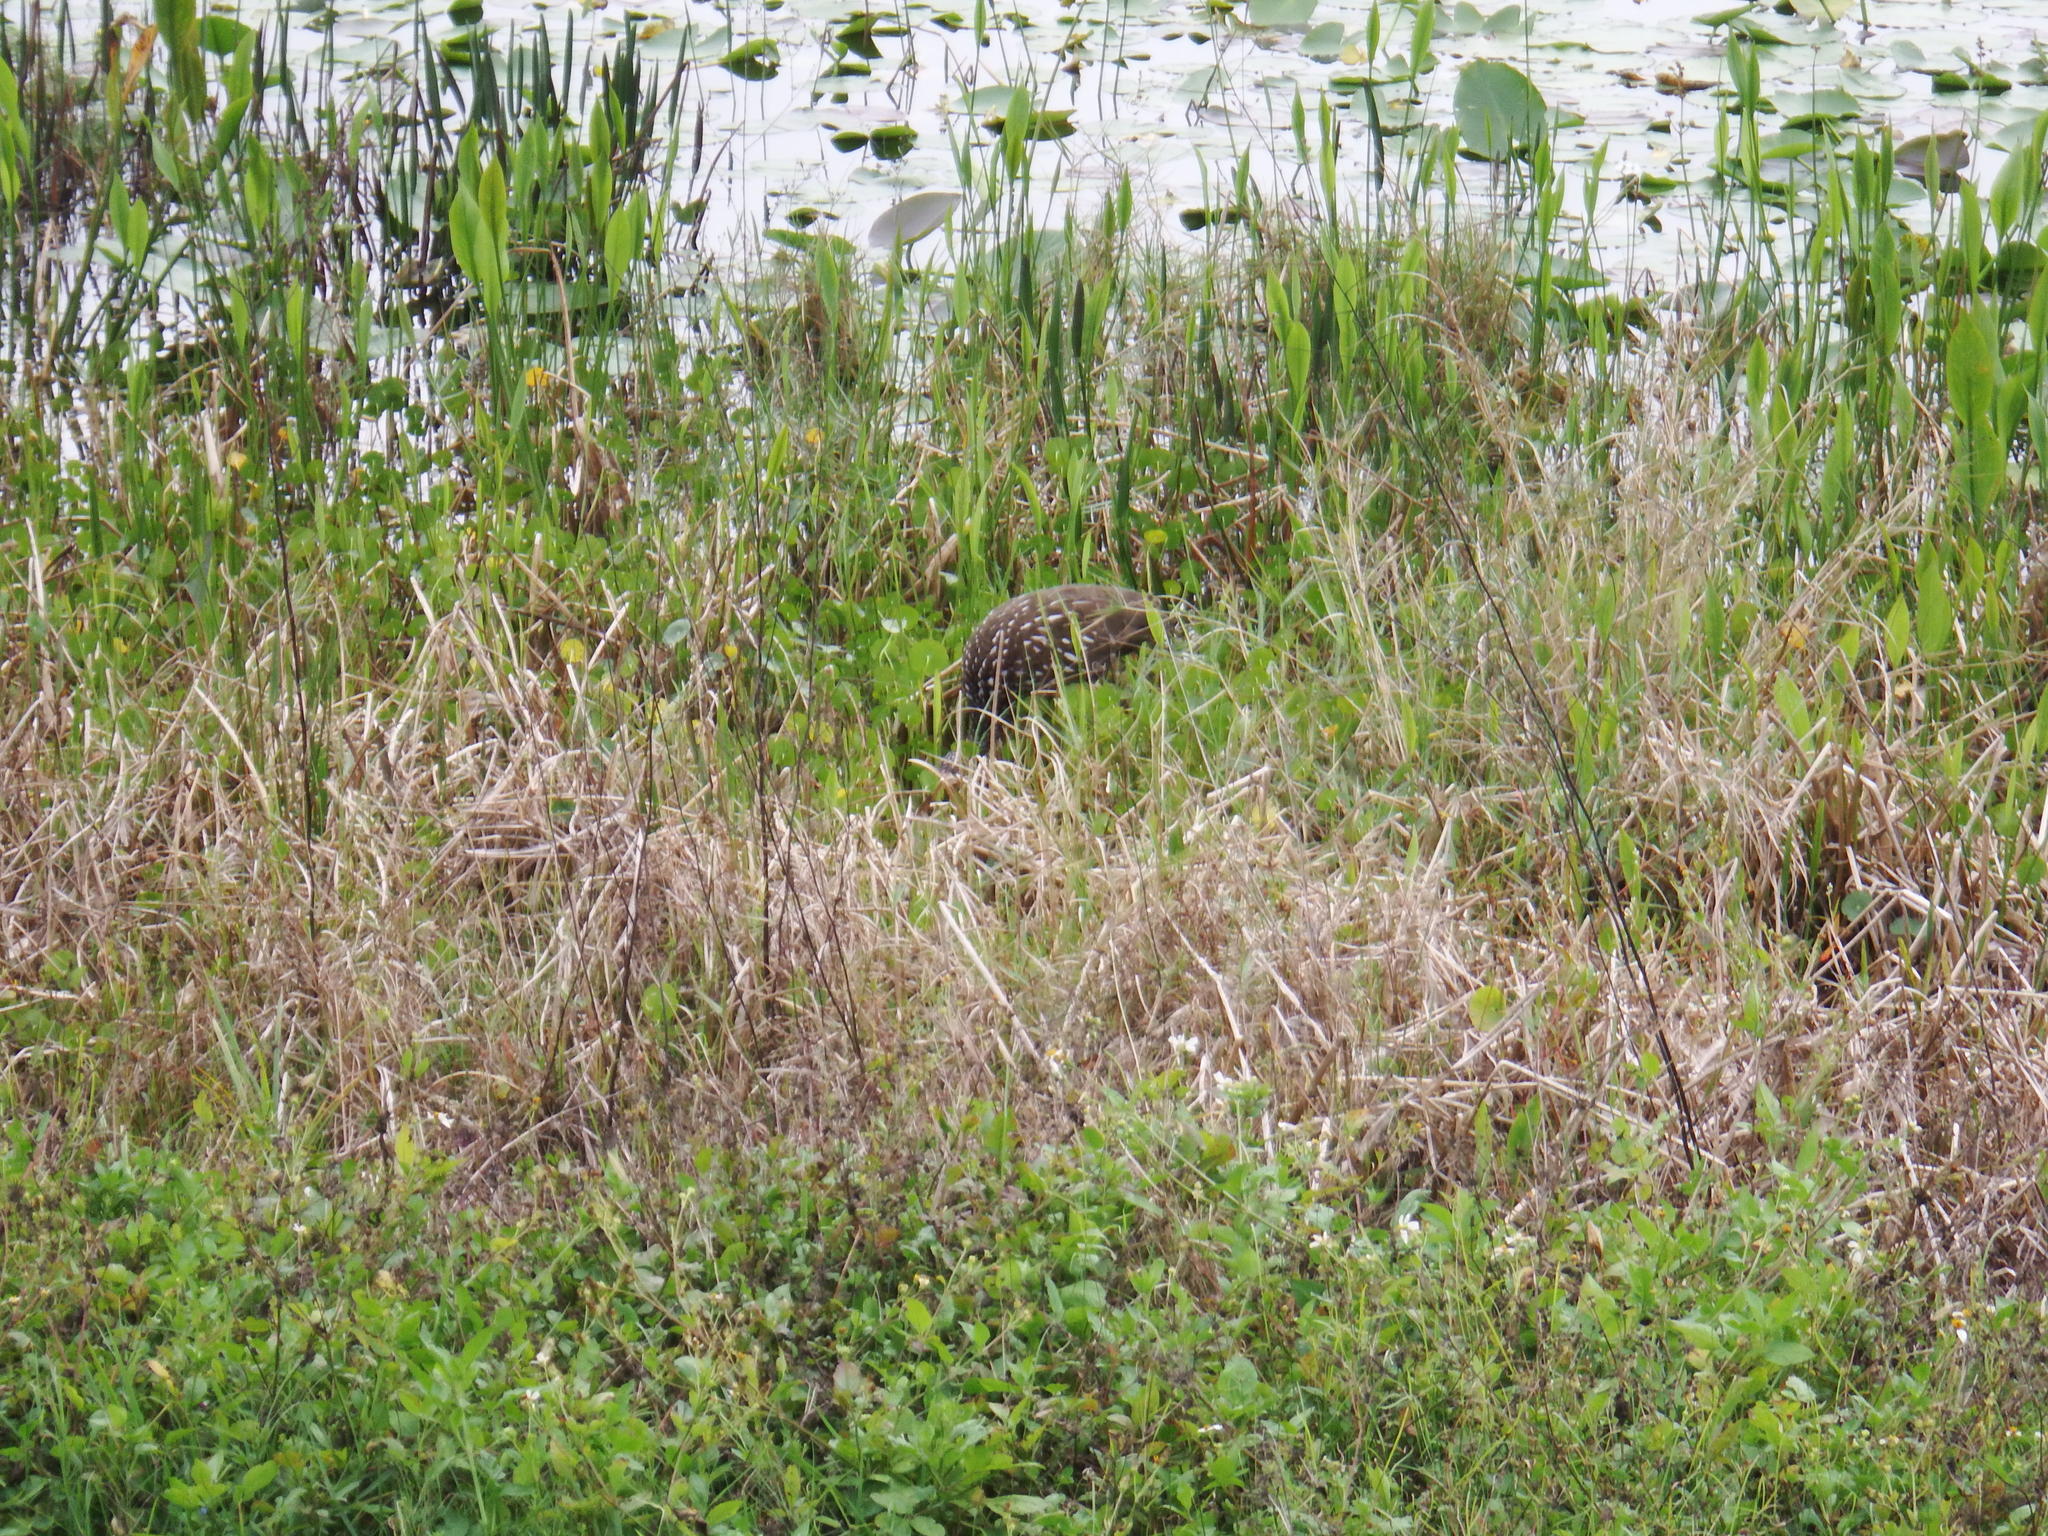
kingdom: Animalia
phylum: Chordata
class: Aves
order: Gruiformes
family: Aramidae
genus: Aramus
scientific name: Aramus guarauna
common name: Limpkin
